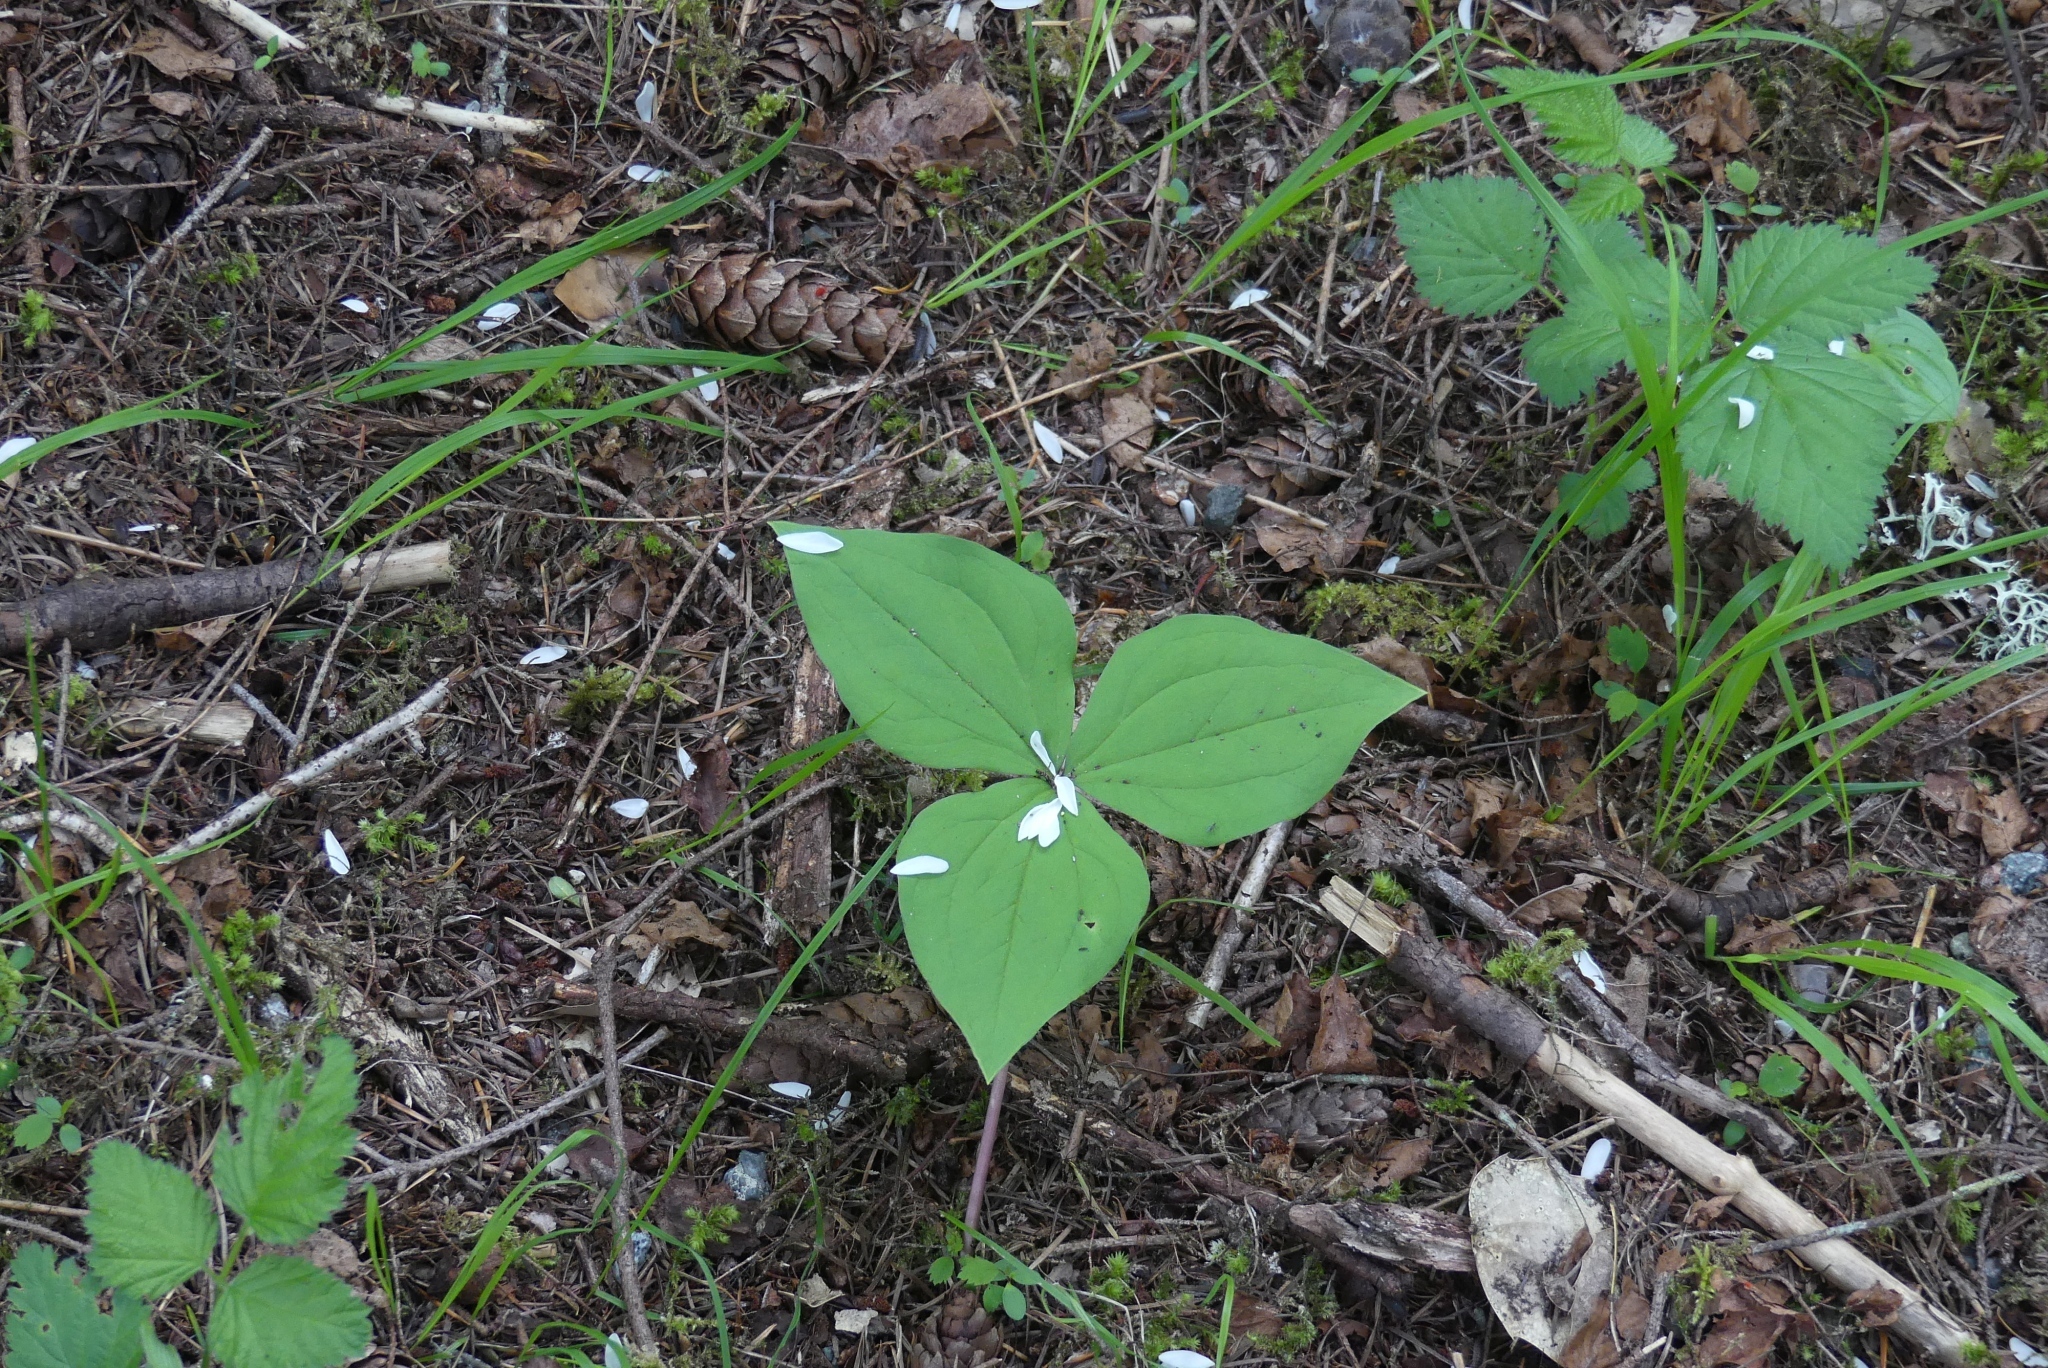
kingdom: Plantae
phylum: Tracheophyta
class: Liliopsida
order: Liliales
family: Melanthiaceae
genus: Trillium
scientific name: Trillium ovatum
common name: Pacific trillium
